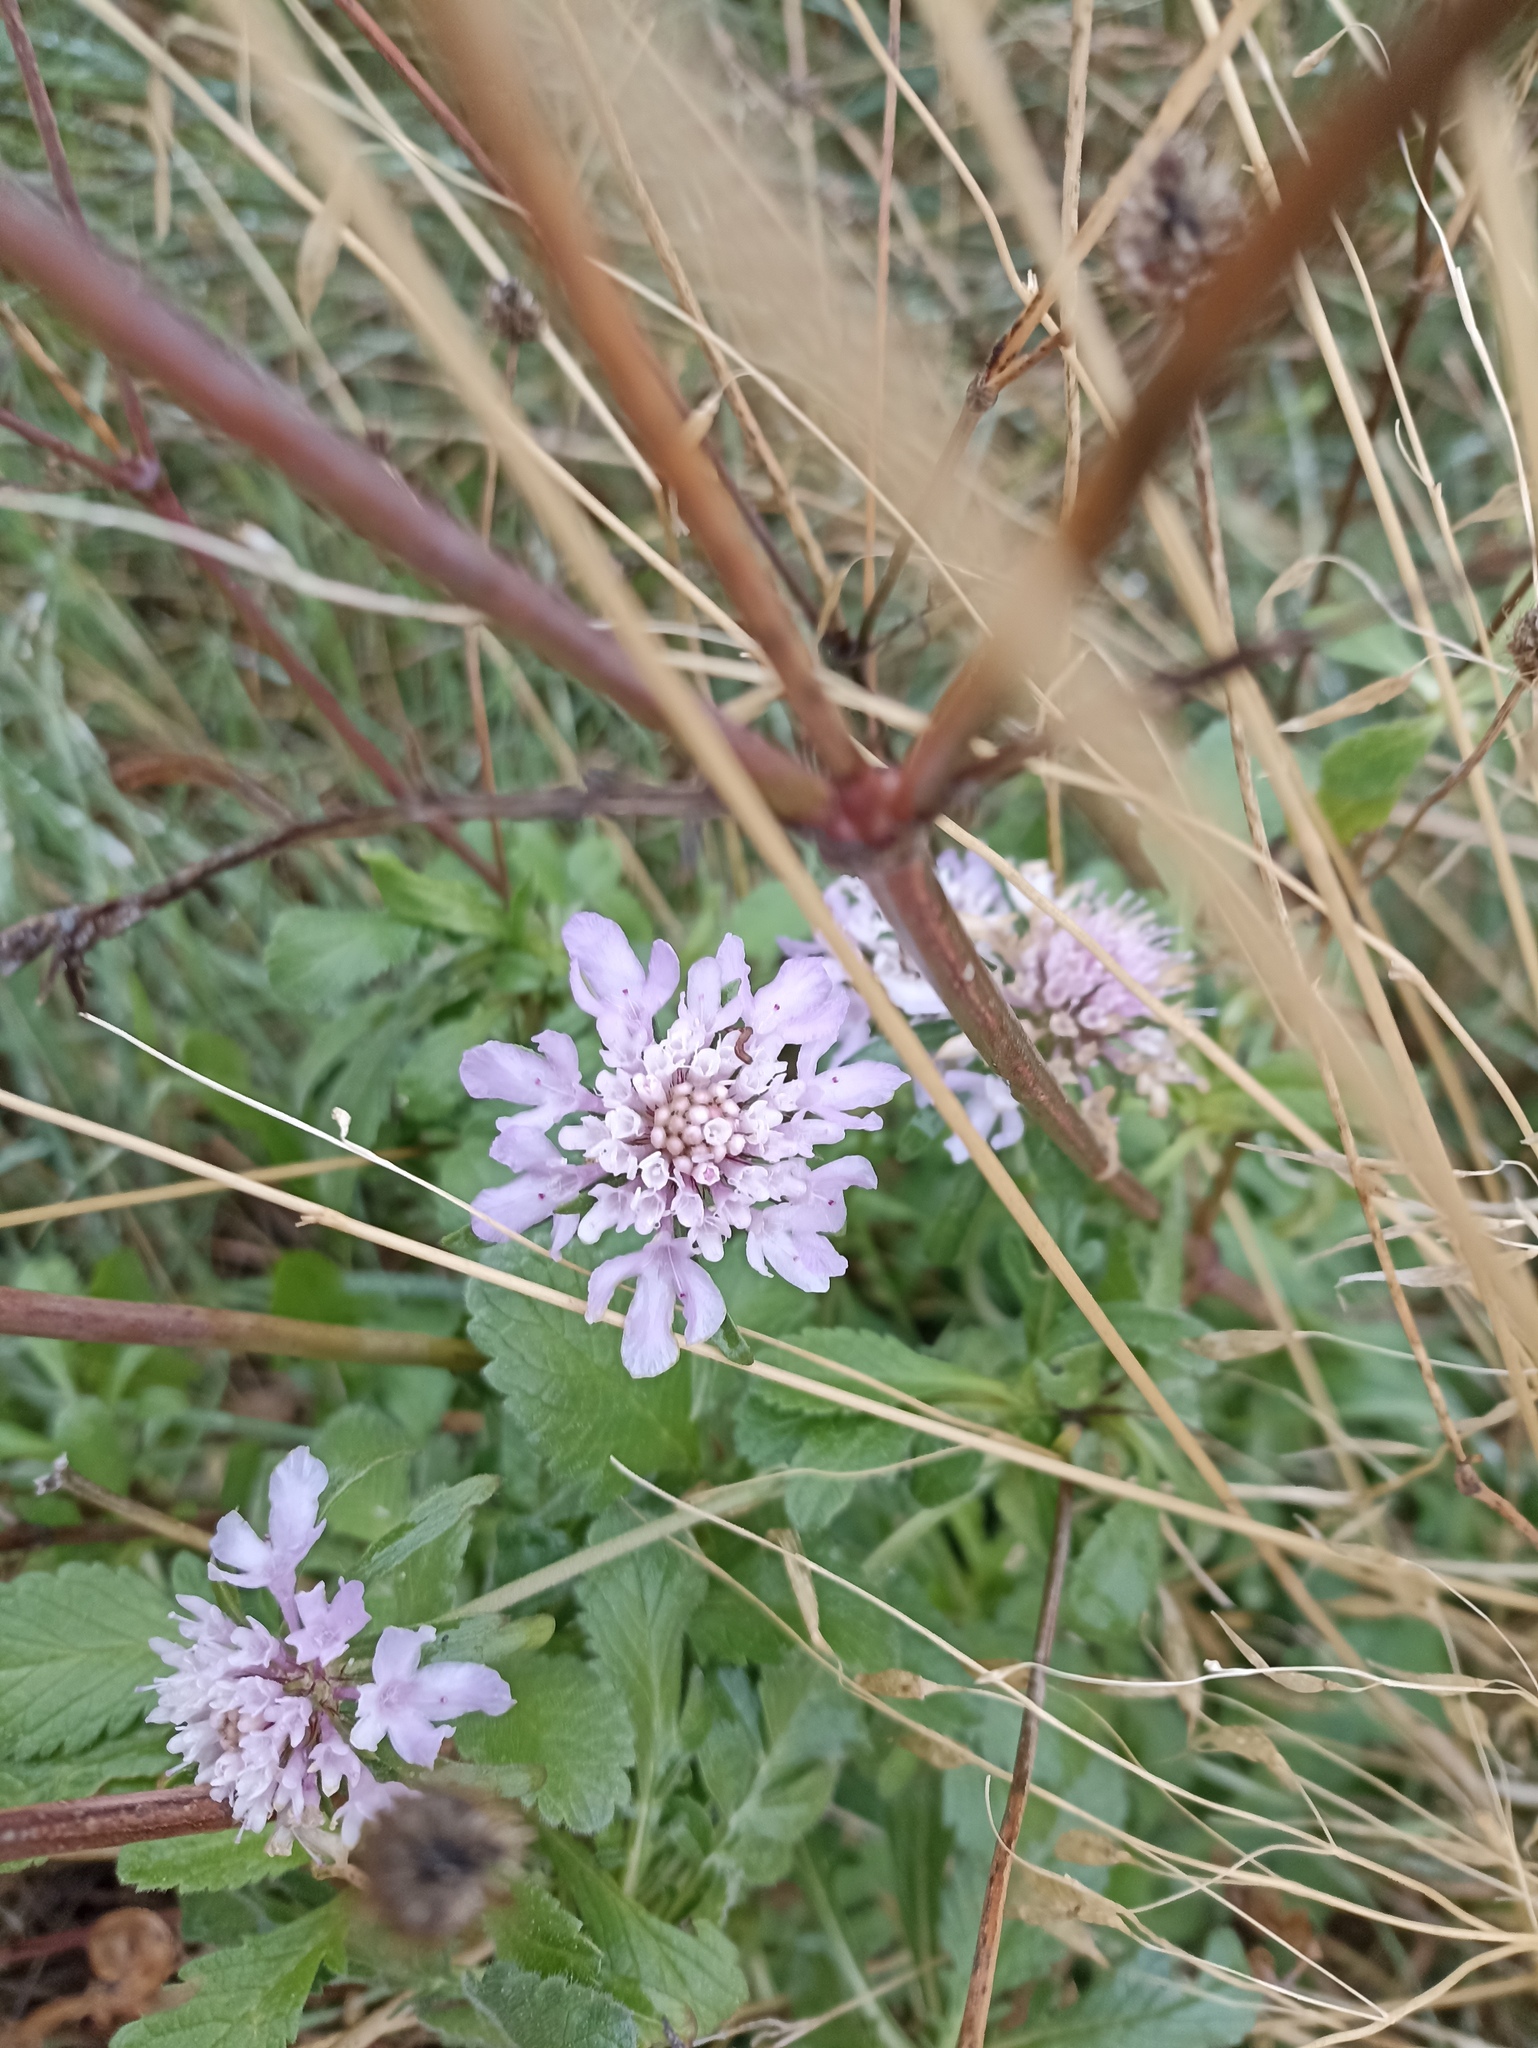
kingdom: Plantae
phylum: Tracheophyta
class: Magnoliopsida
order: Dipsacales
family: Caprifoliaceae
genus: Sixalix
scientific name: Sixalix atropurpurea
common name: Sweet scabious
